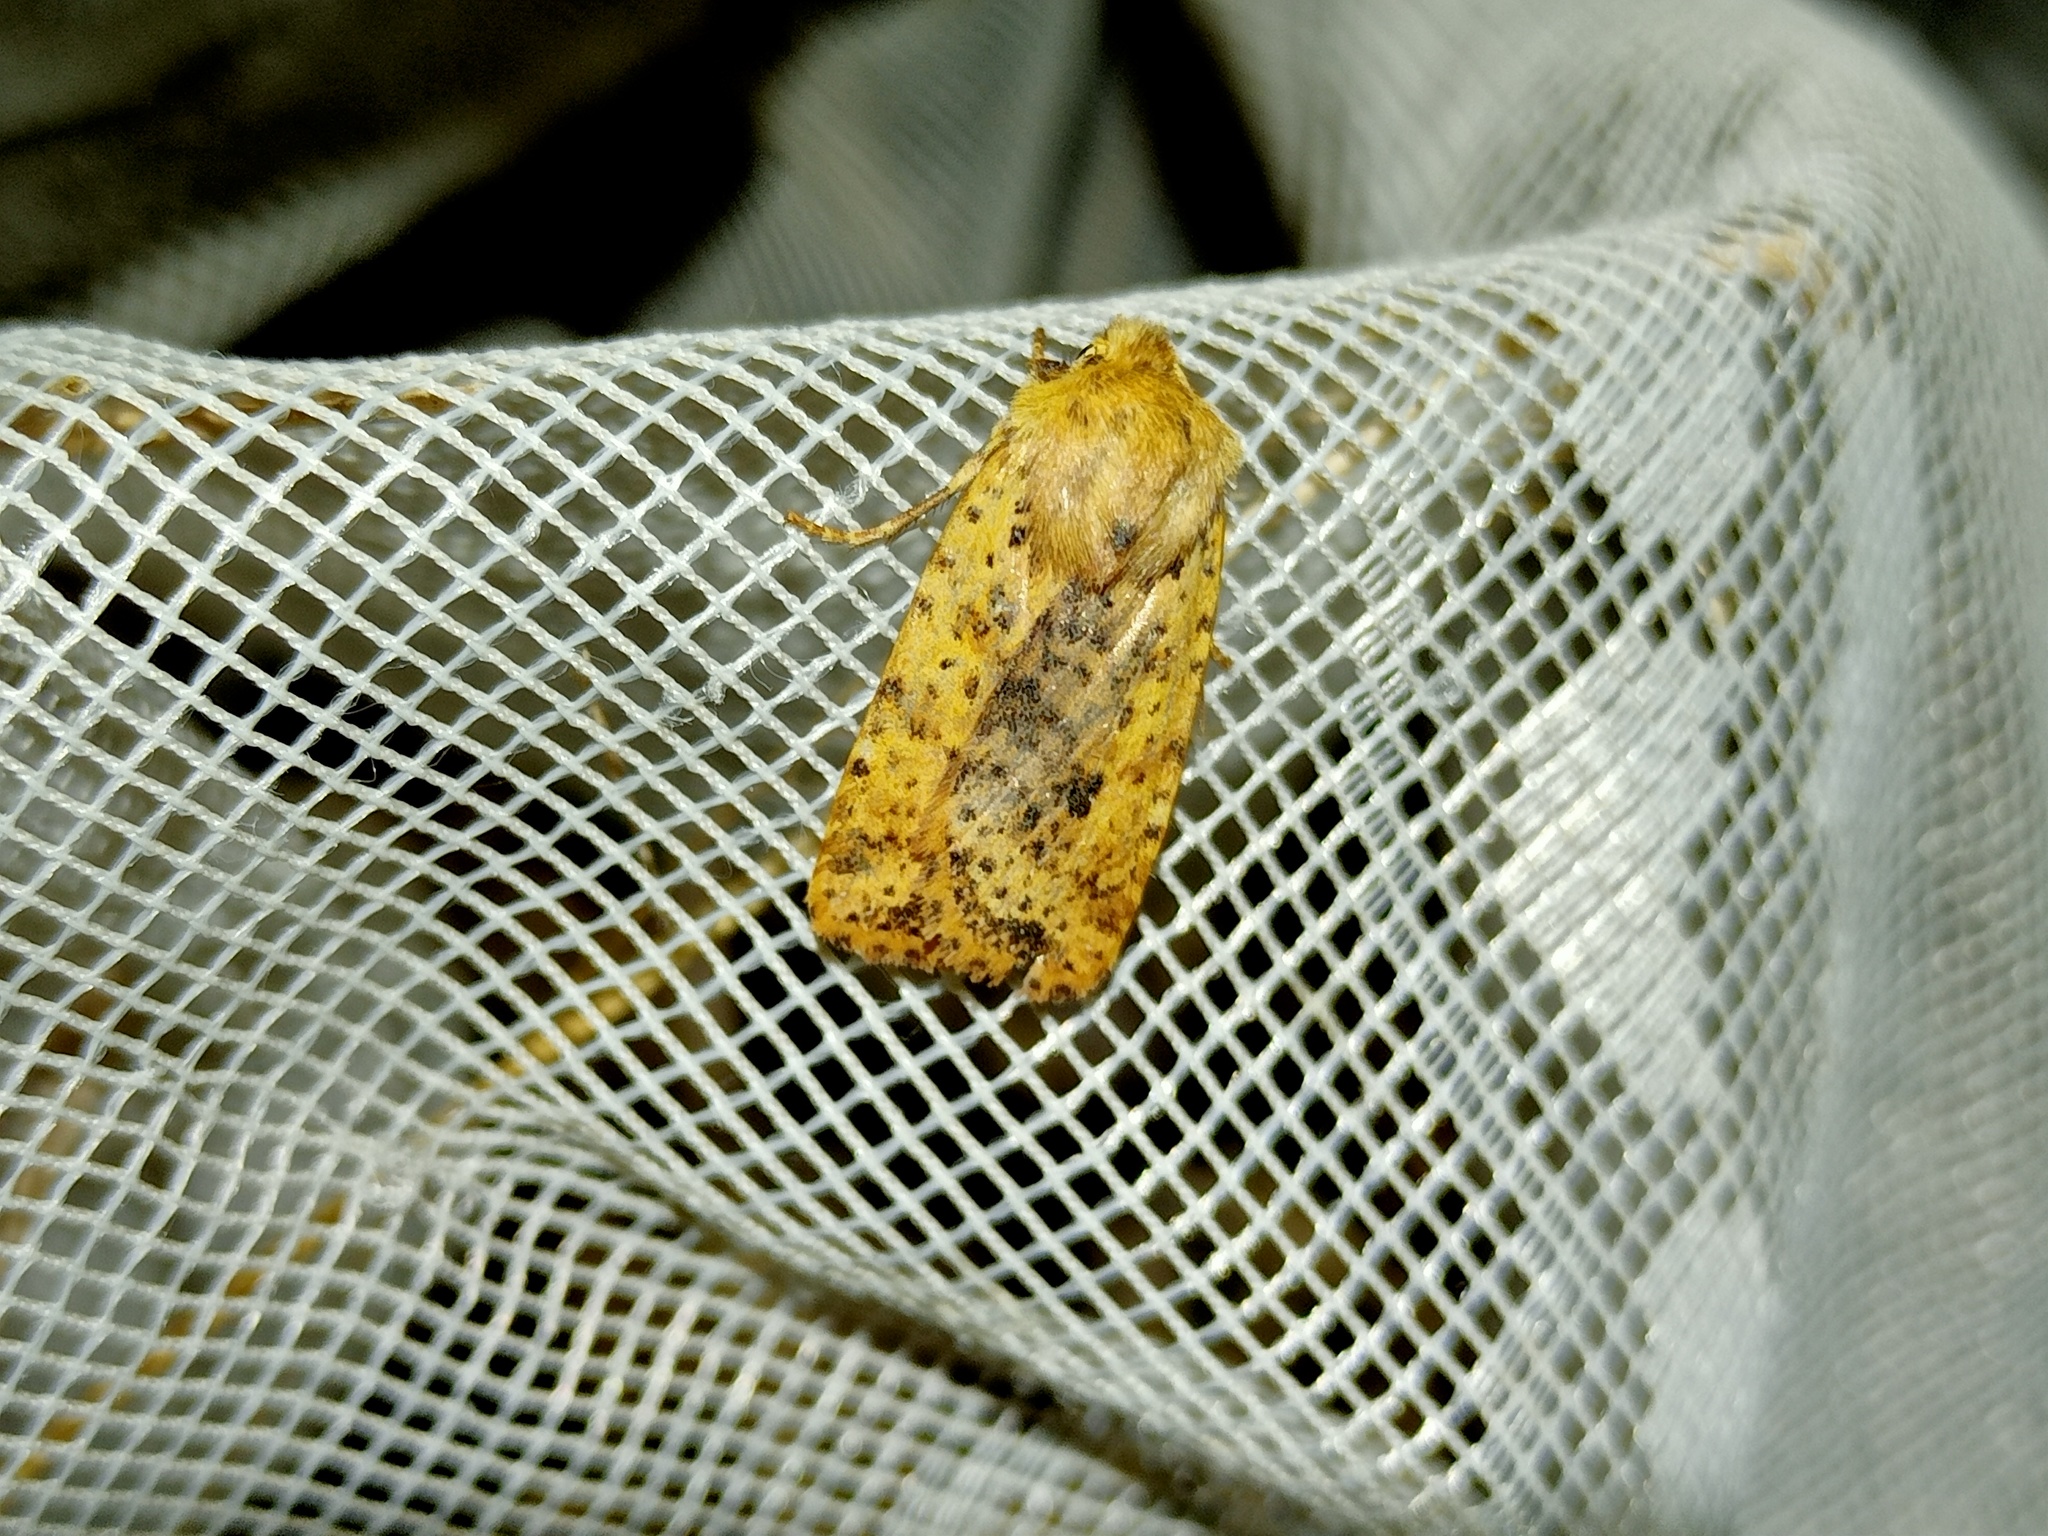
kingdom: Animalia
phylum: Arthropoda
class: Insecta
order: Lepidoptera
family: Noctuidae
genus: Conistra
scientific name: Conistra rubiginea
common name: Dotted chestnut
